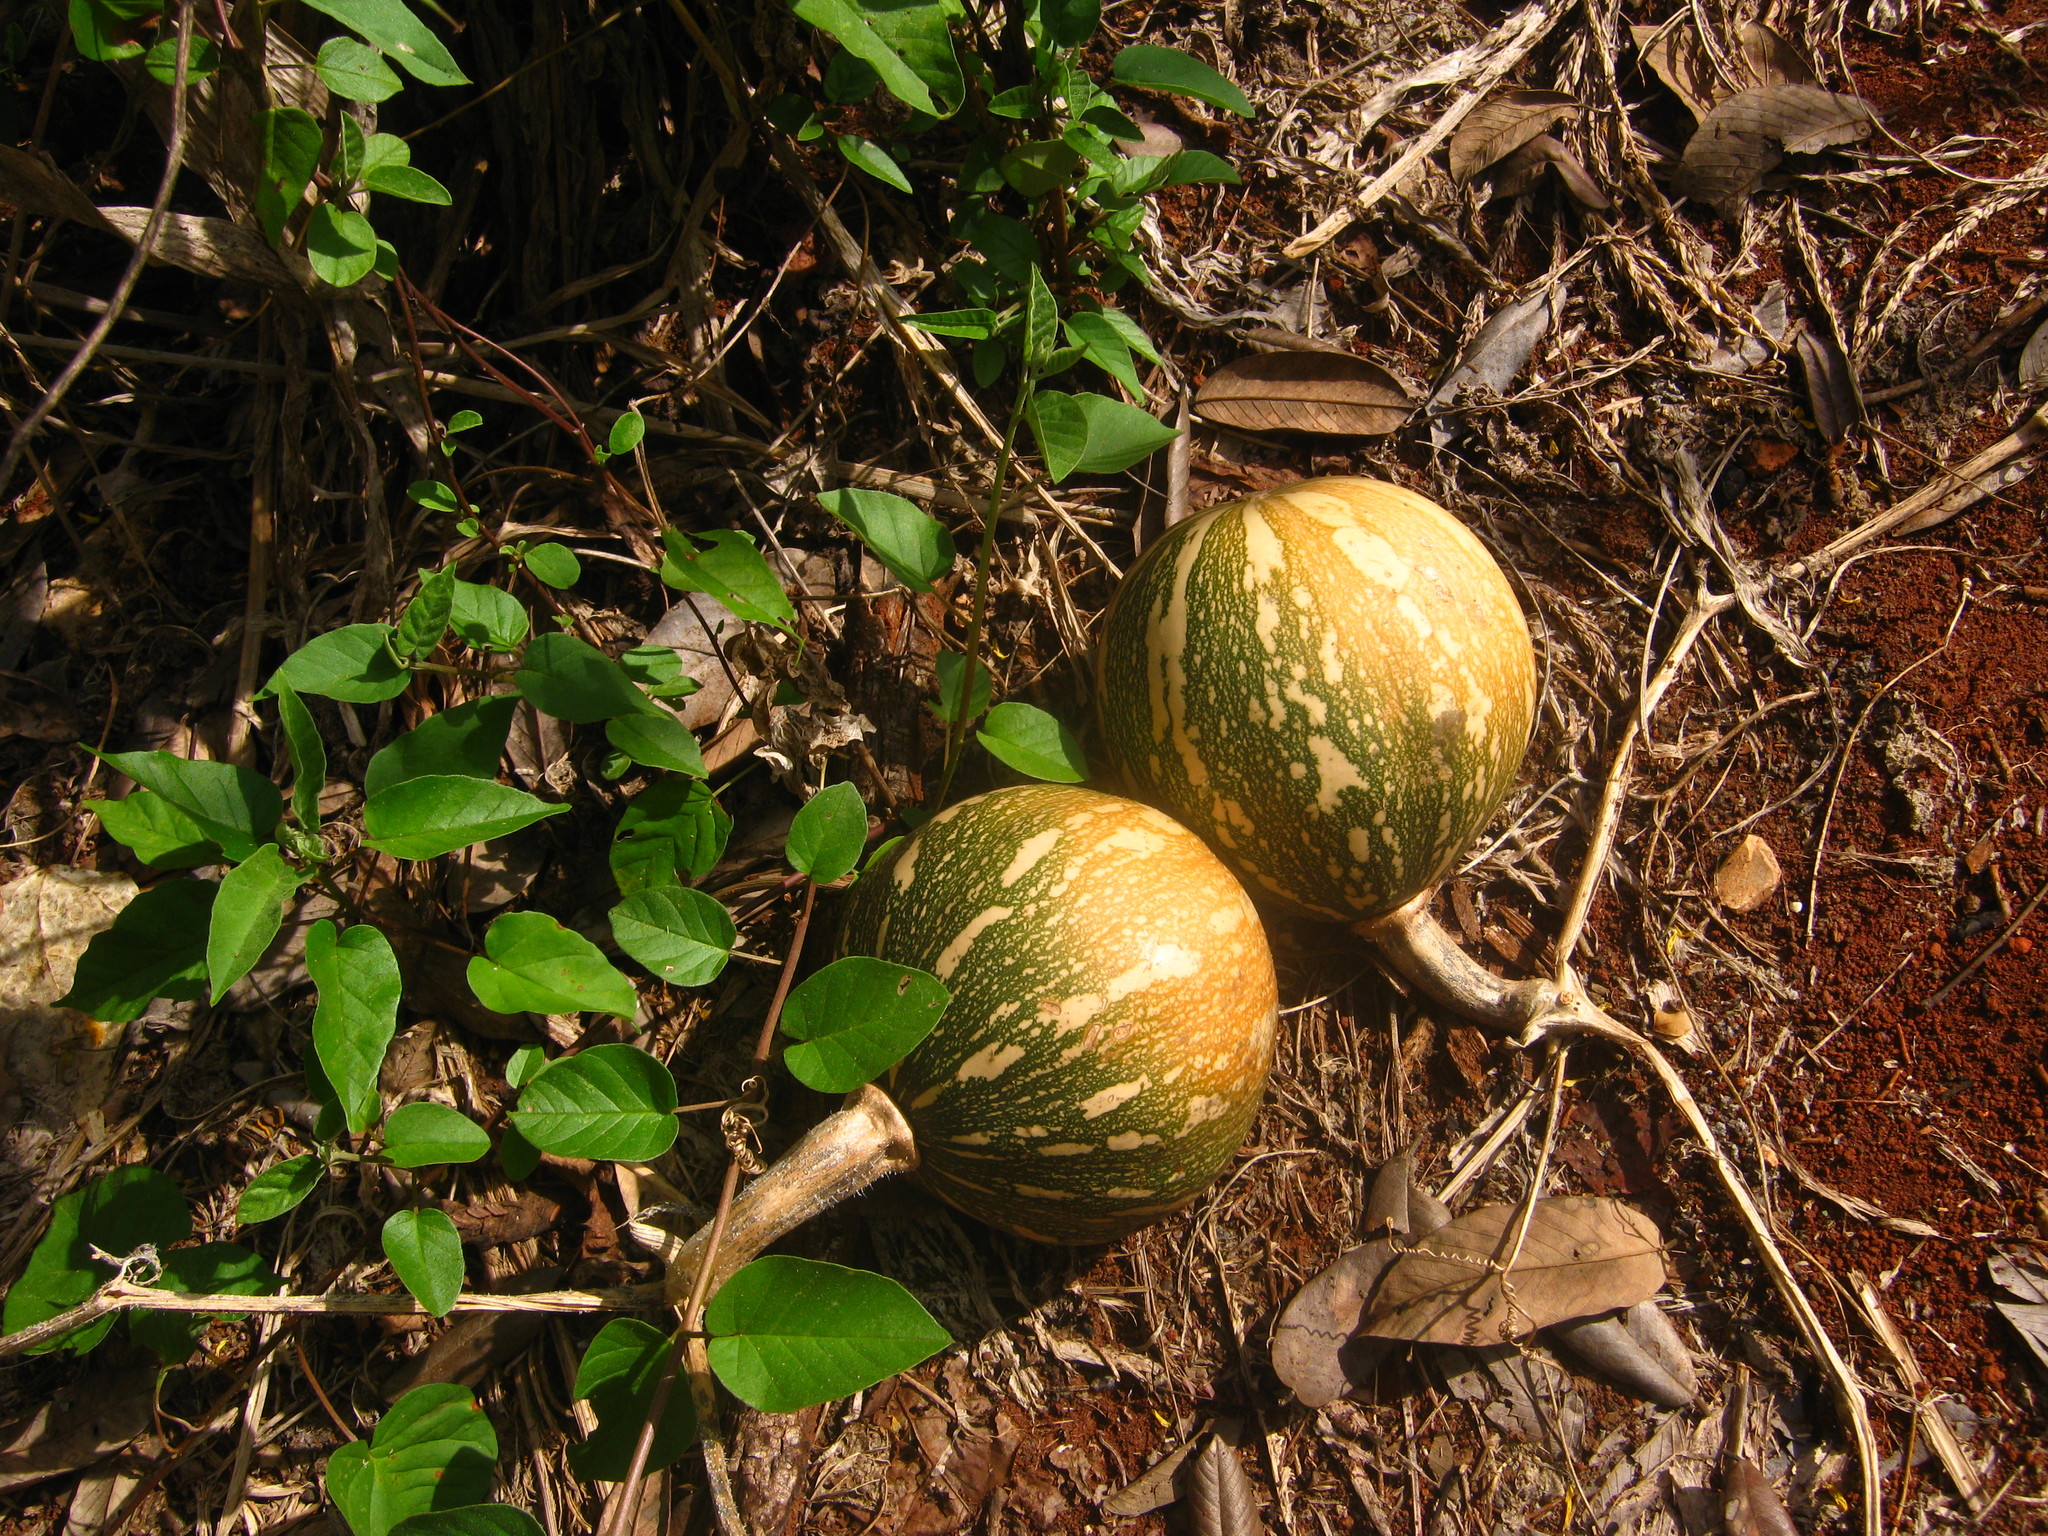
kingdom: Plantae
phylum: Tracheophyta
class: Magnoliopsida
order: Cucurbitales
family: Cucurbitaceae
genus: Cucurbita
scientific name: Cucurbita moschata
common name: Squash / pumpkin
